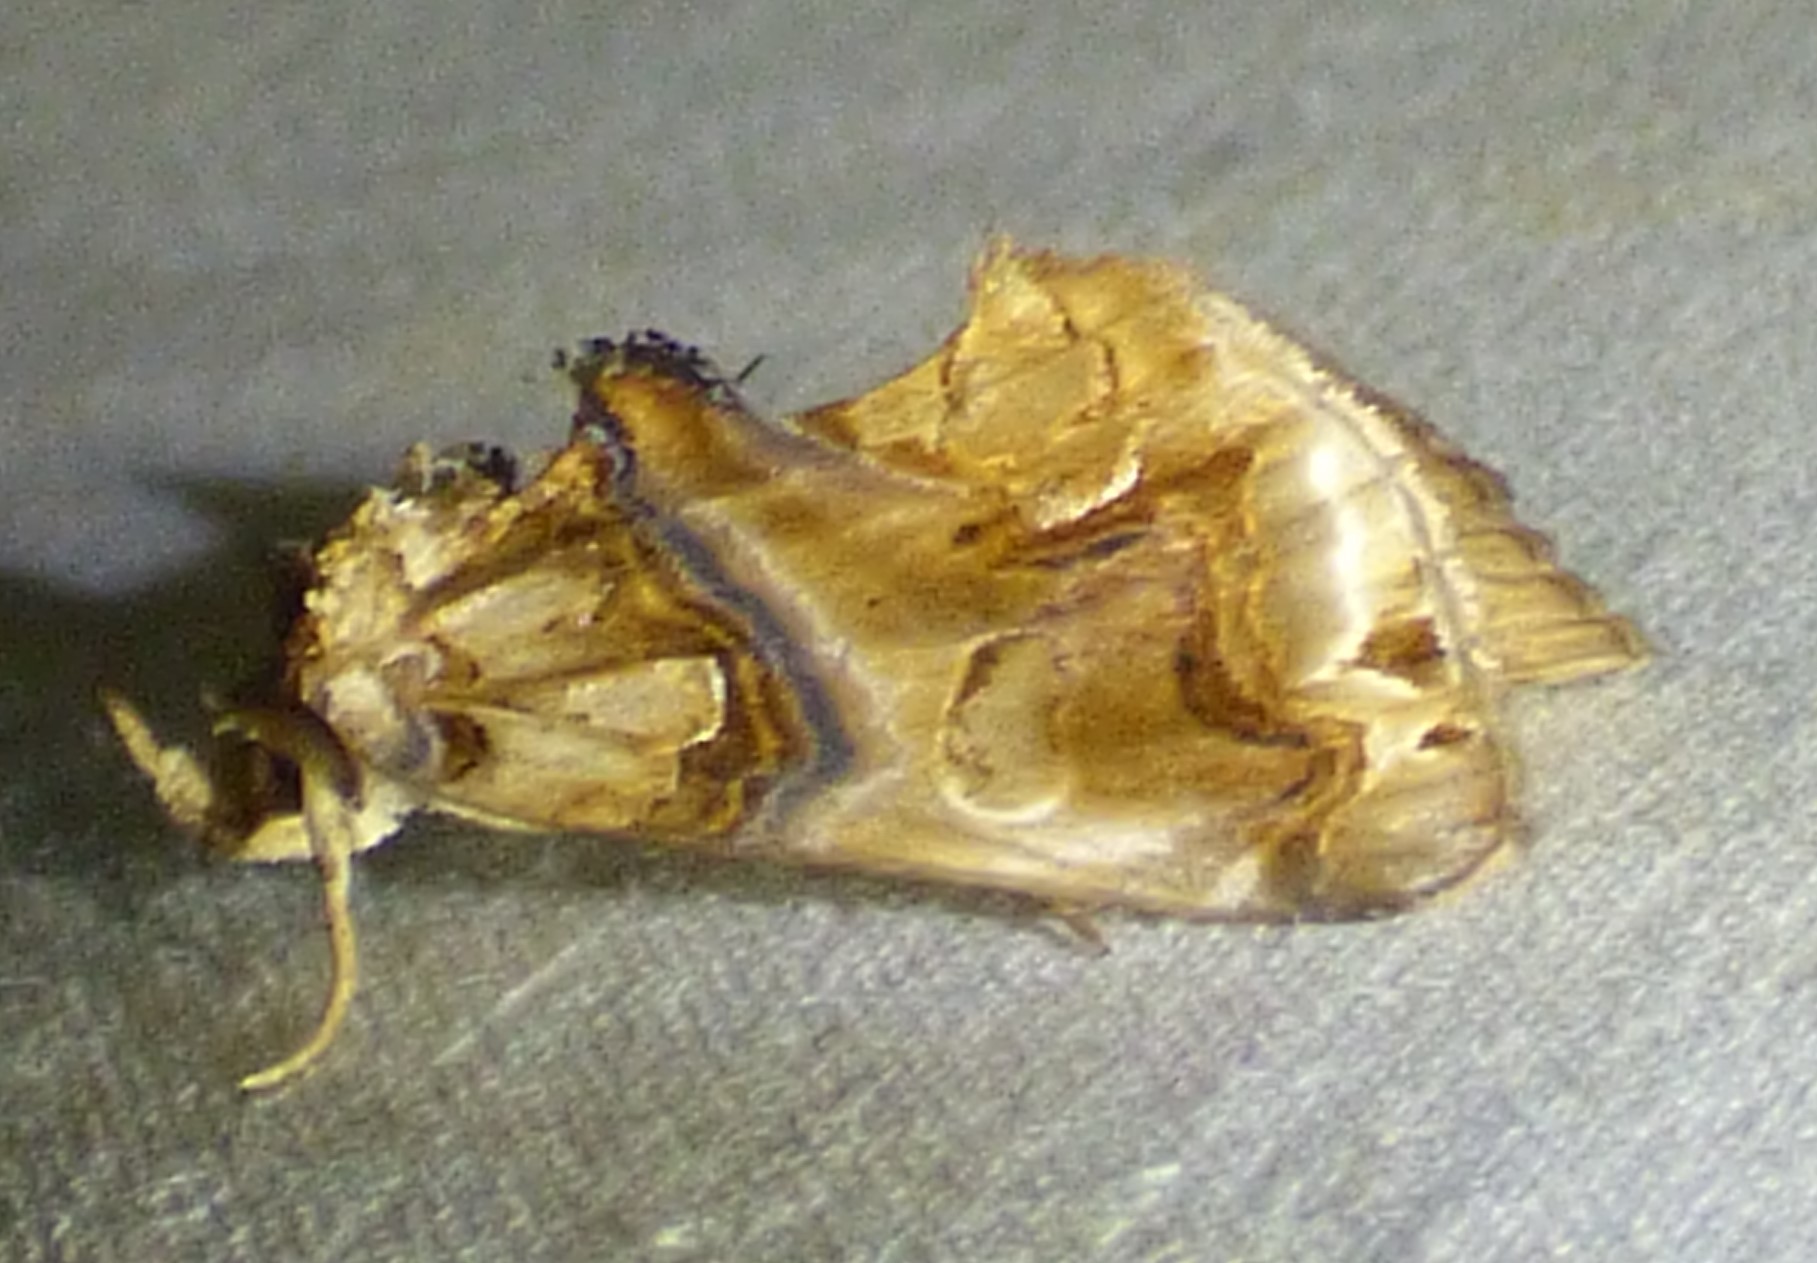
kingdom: Animalia
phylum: Arthropoda
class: Insecta
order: Lepidoptera
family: Erebidae
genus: Plusiodonta
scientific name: Plusiodonta compressipalpis
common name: Moonseed moth
